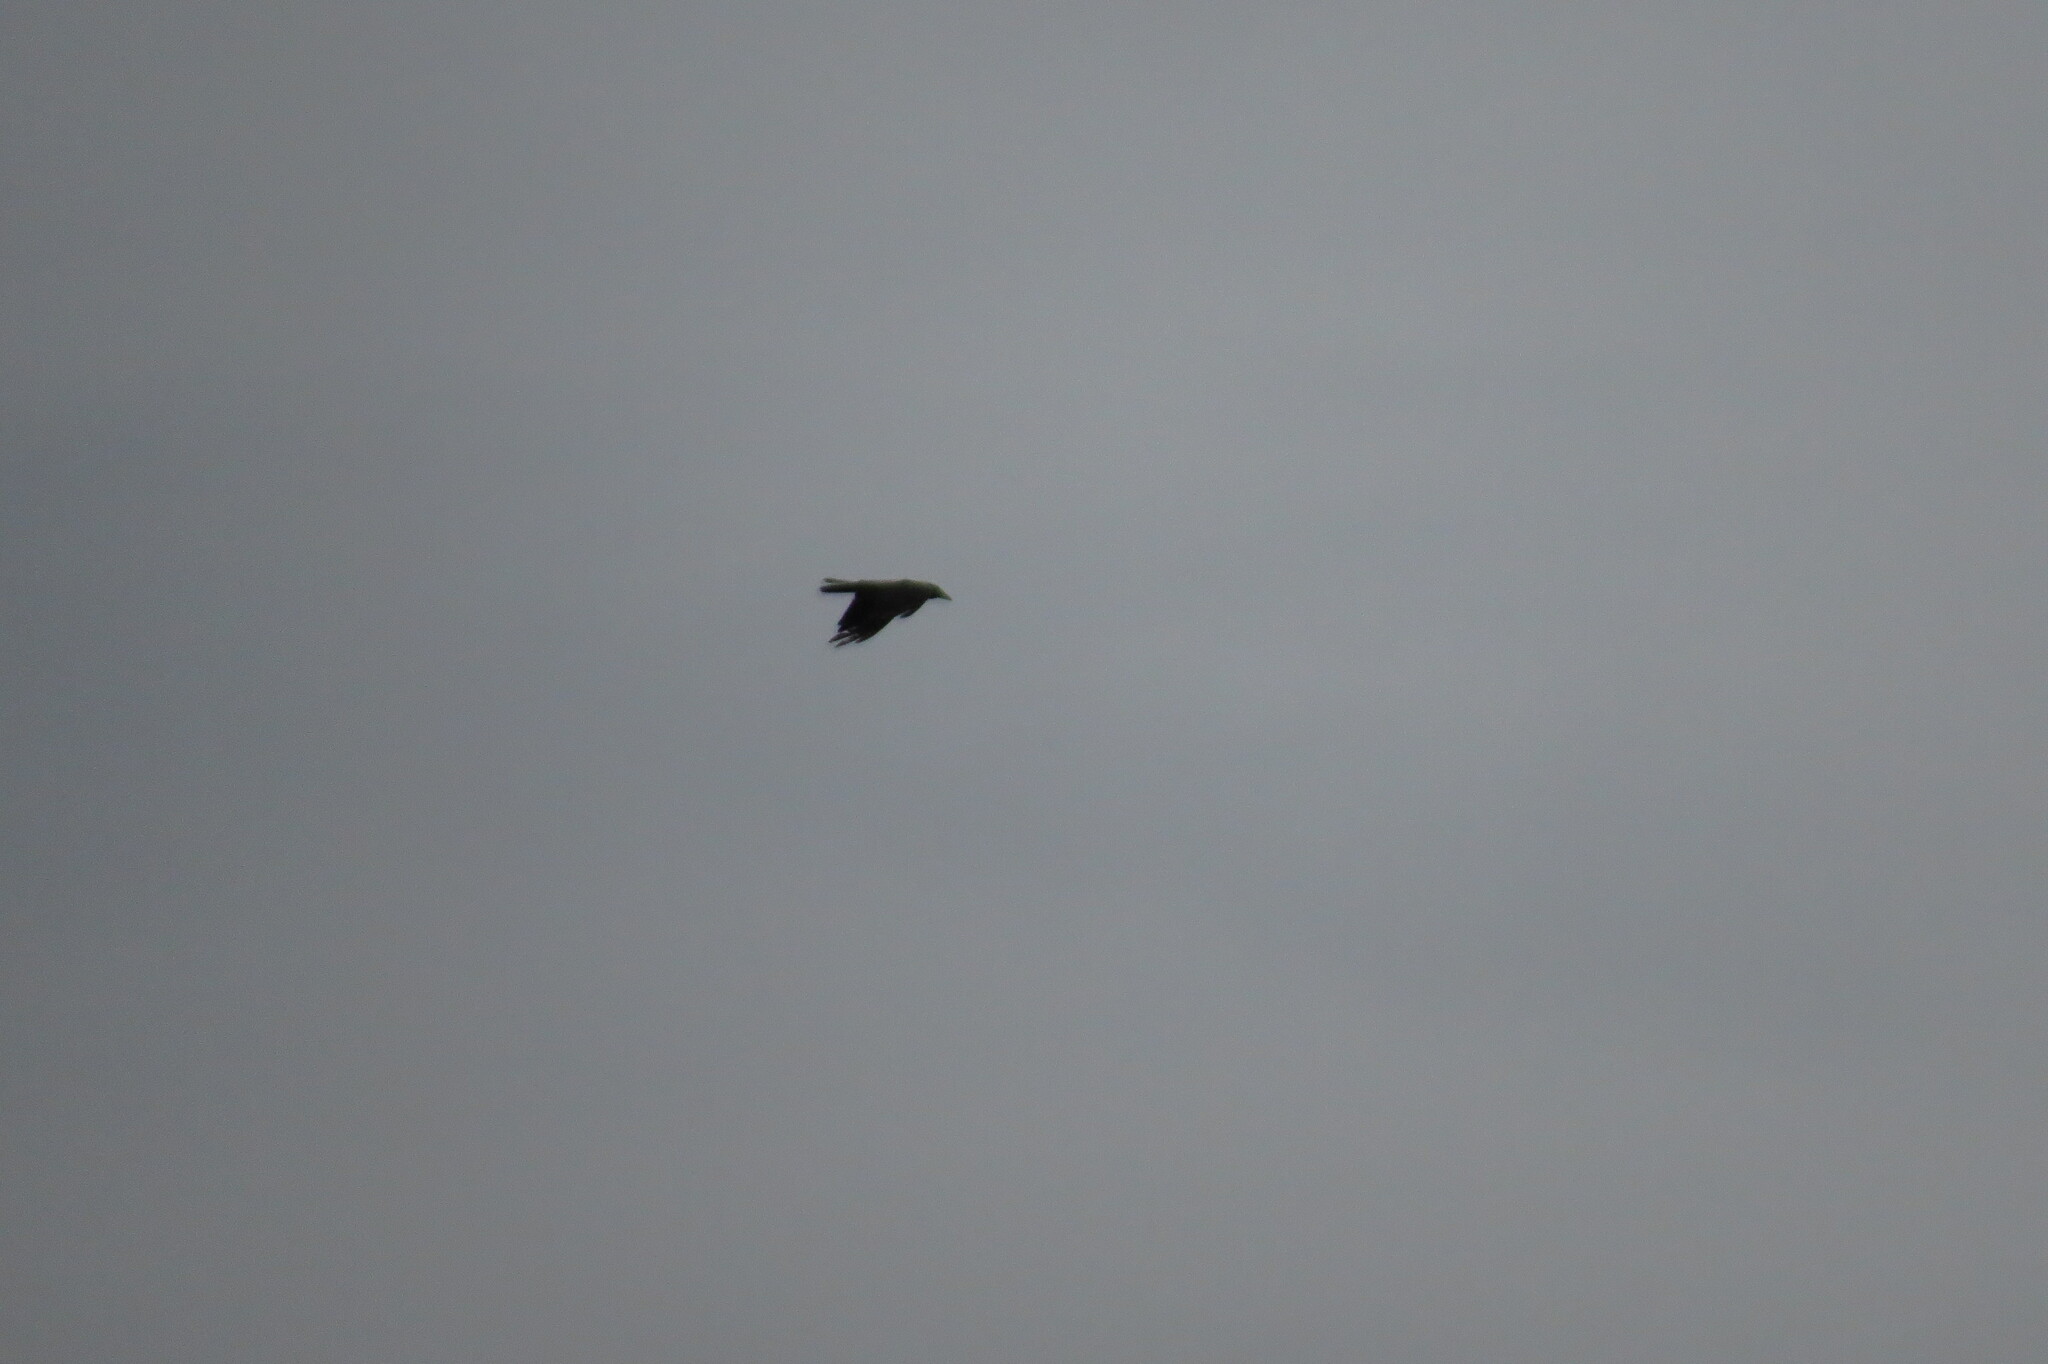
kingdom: Animalia
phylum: Chordata
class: Aves
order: Passeriformes
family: Corvidae
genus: Corvus
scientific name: Corvus cornix
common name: Hooded crow
